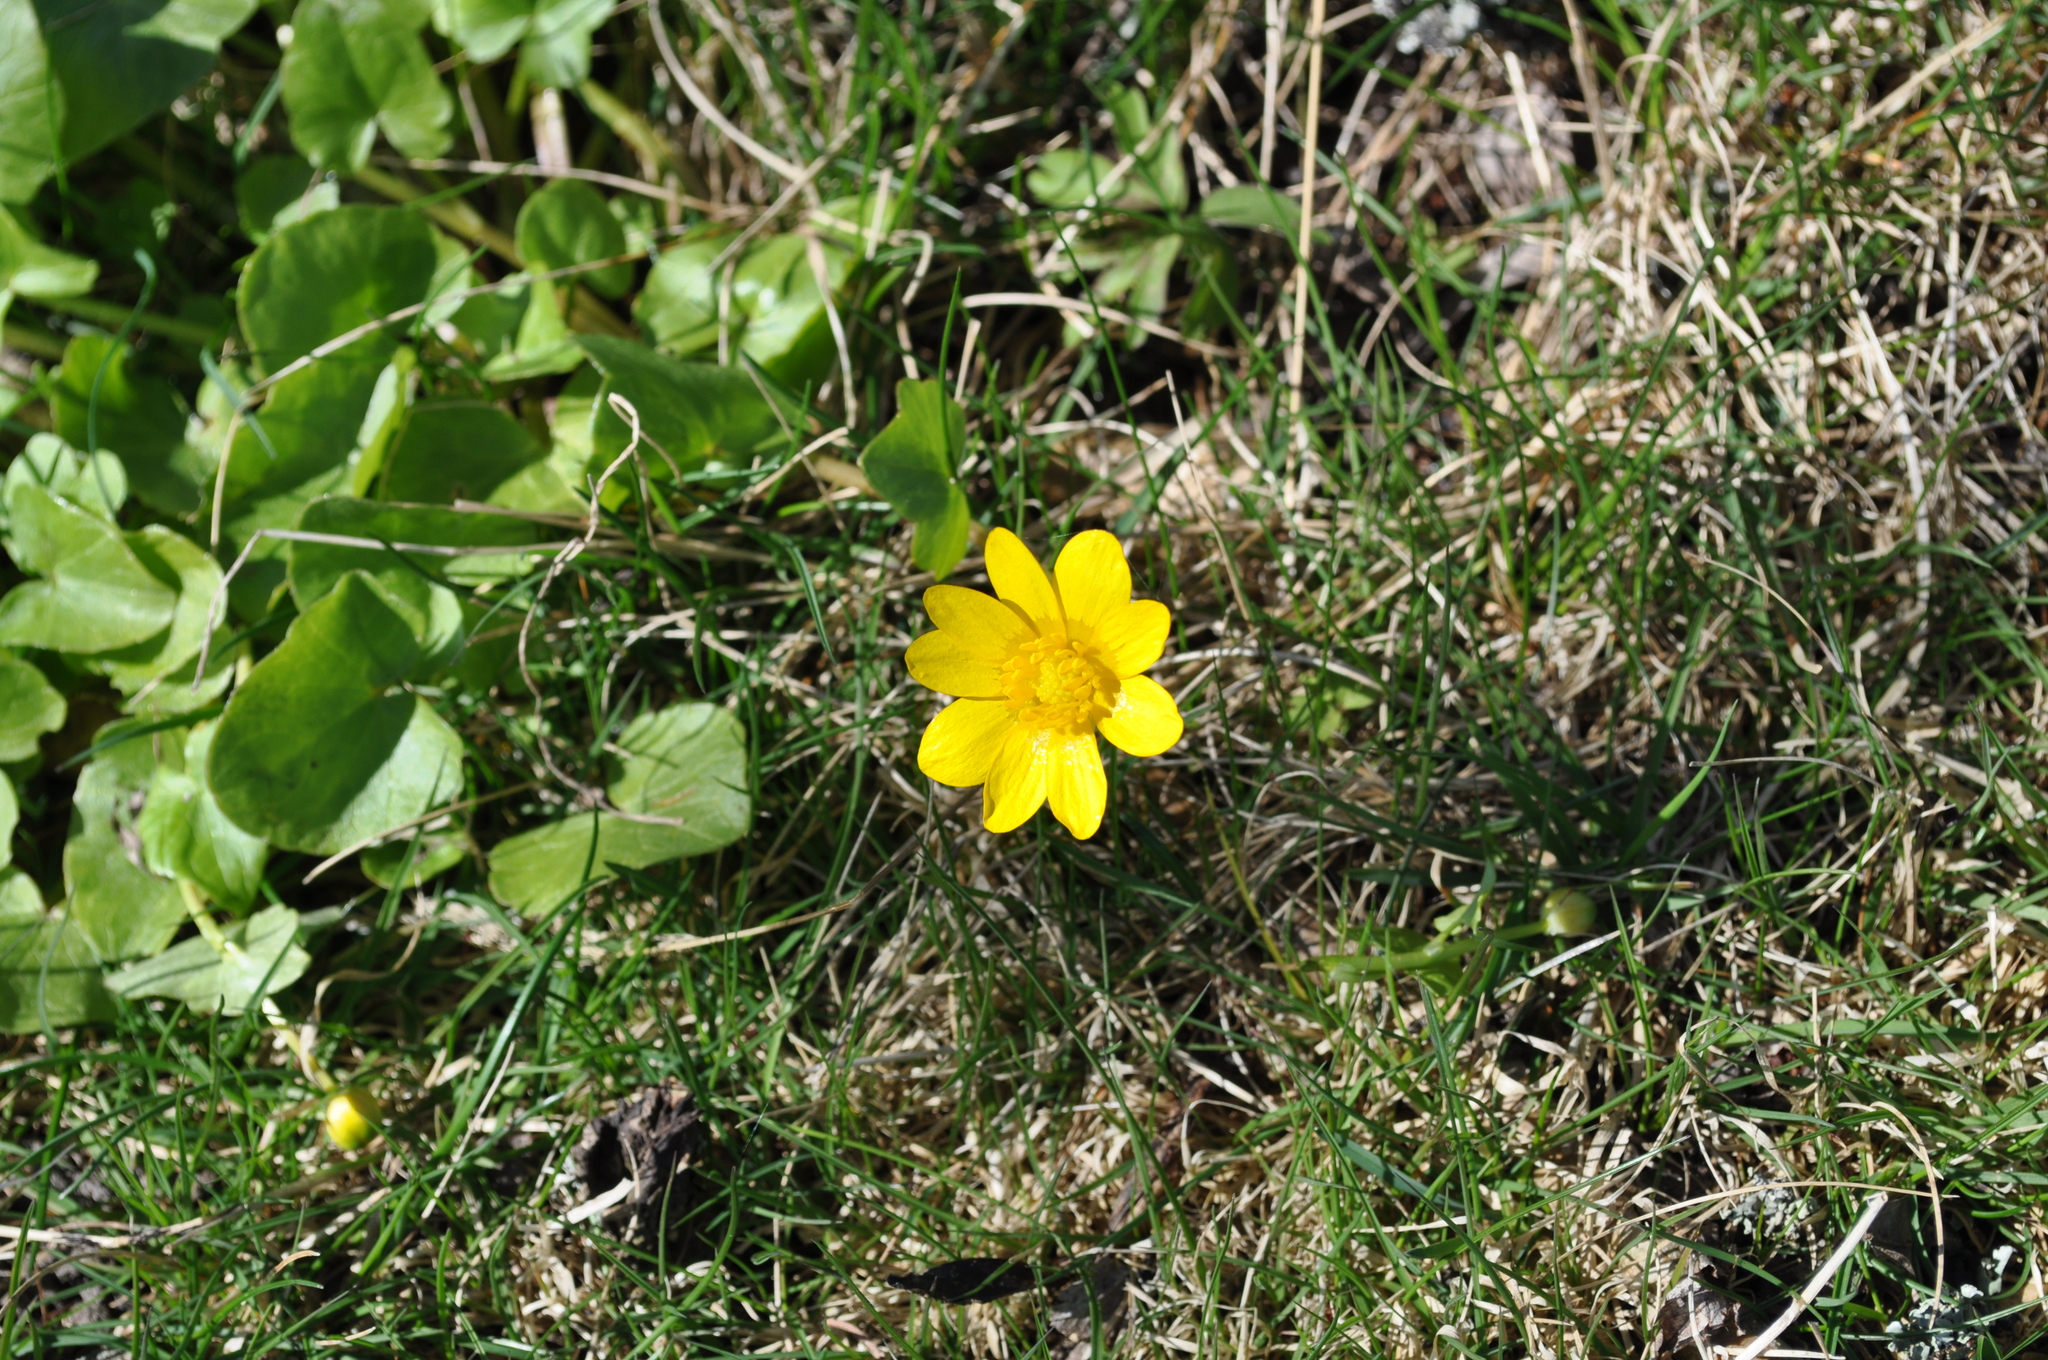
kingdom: Plantae
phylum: Tracheophyta
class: Magnoliopsida
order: Ranunculales
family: Ranunculaceae
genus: Ficaria
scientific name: Ficaria verna
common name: Lesser celandine
